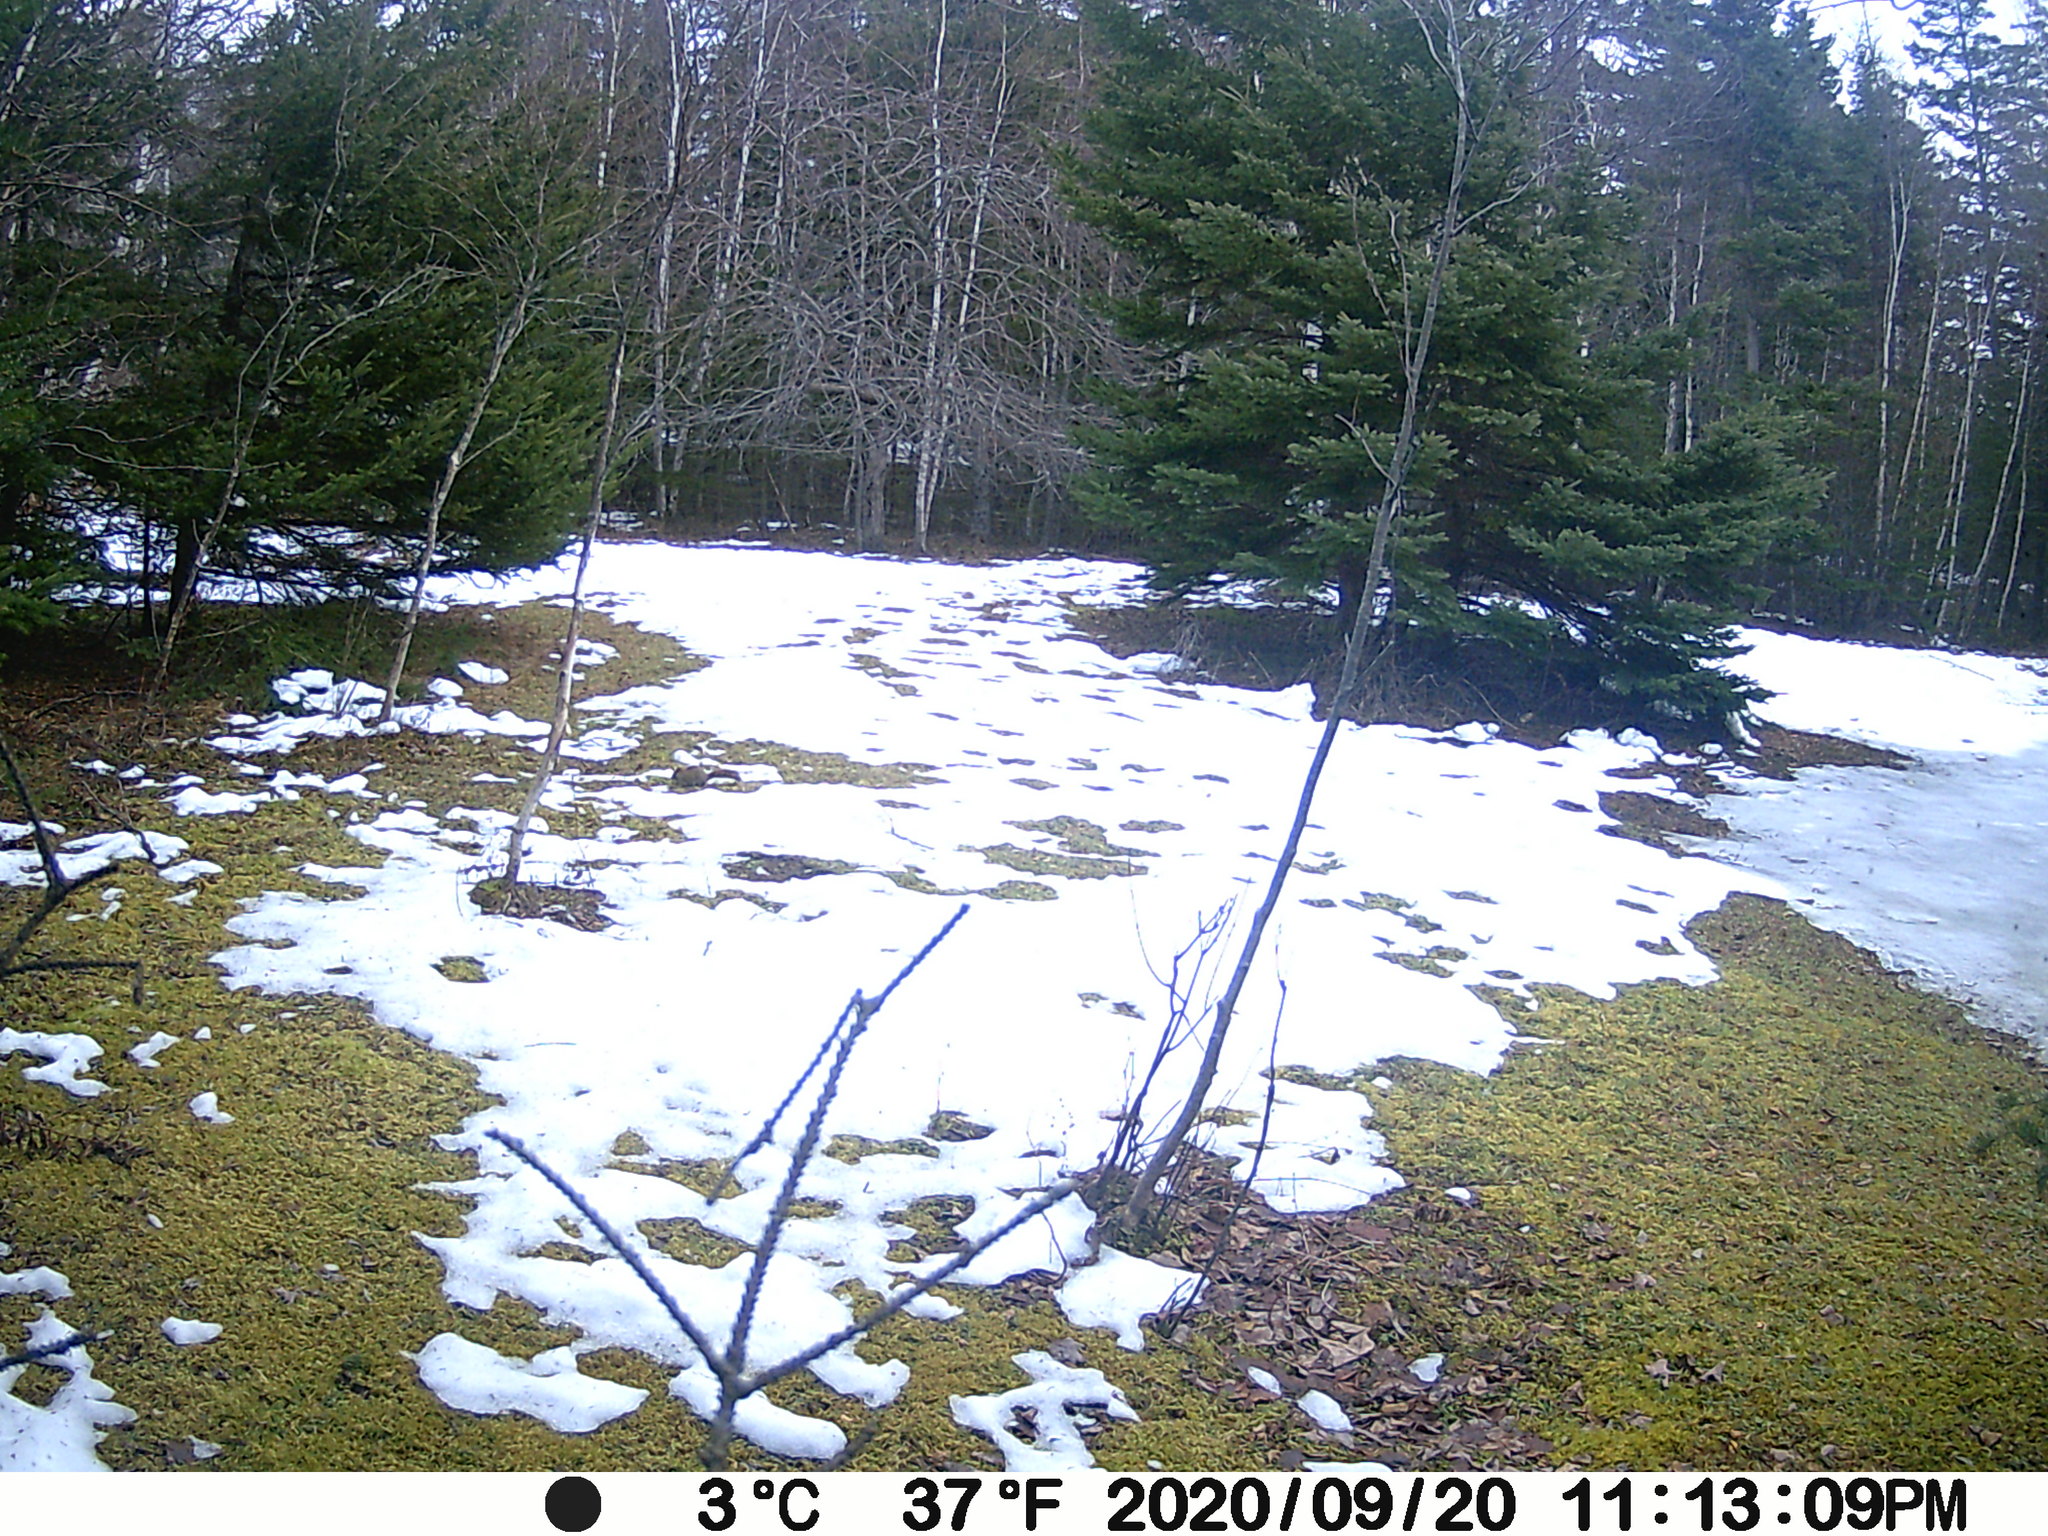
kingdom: Animalia
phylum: Chordata
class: Mammalia
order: Rodentia
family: Sciuridae
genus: Tamiasciurus
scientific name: Tamiasciurus hudsonicus
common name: Red squirrel
